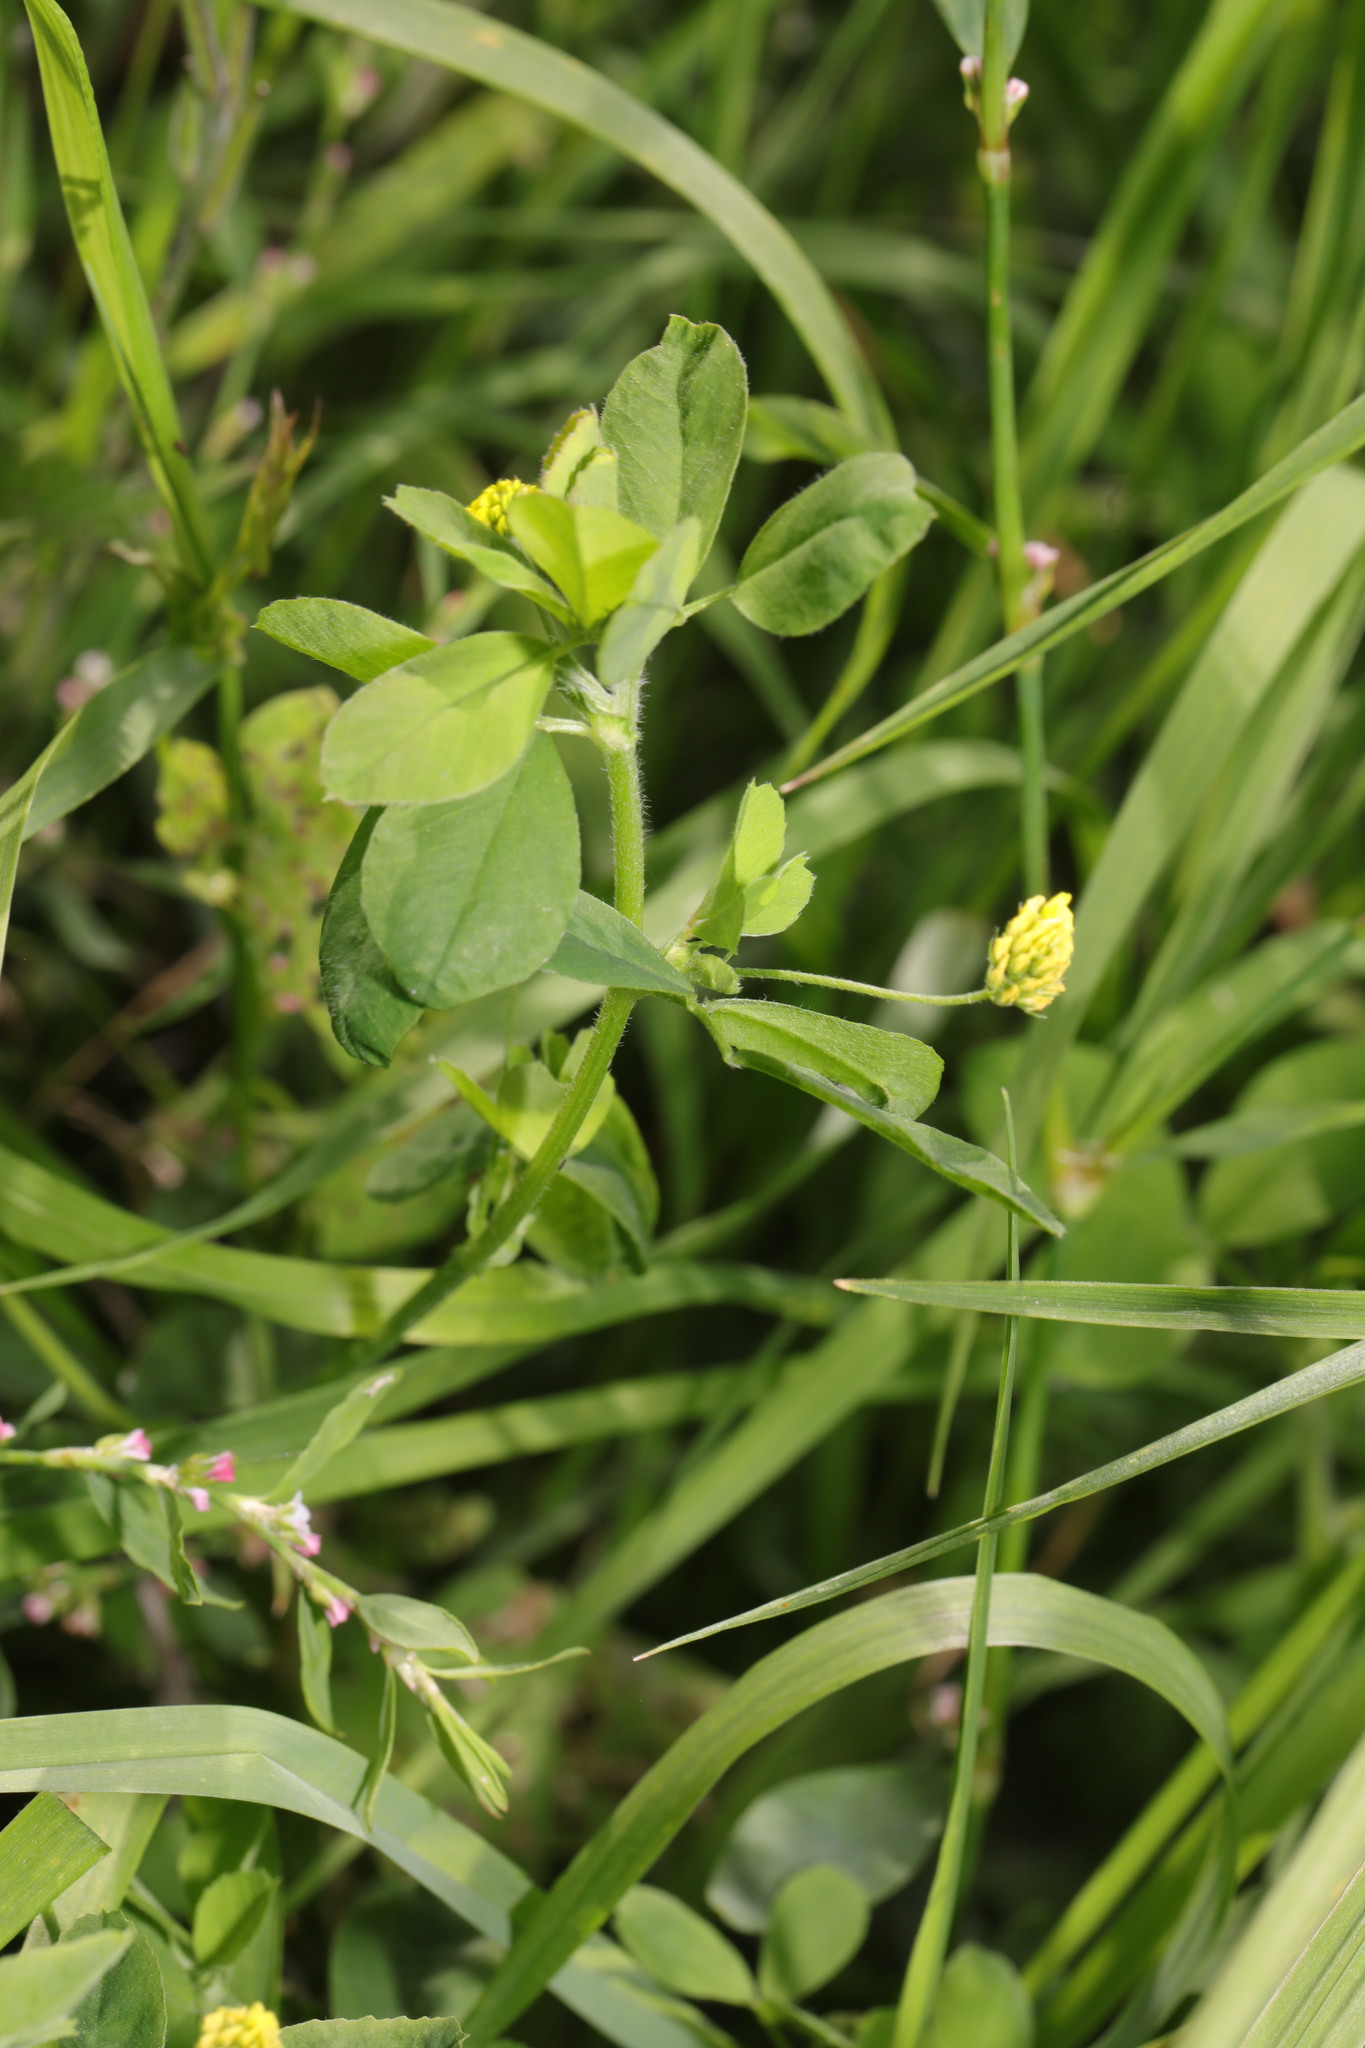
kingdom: Plantae
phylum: Tracheophyta
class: Magnoliopsida
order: Fabales
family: Fabaceae
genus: Medicago
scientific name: Medicago lupulina
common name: Black medick
